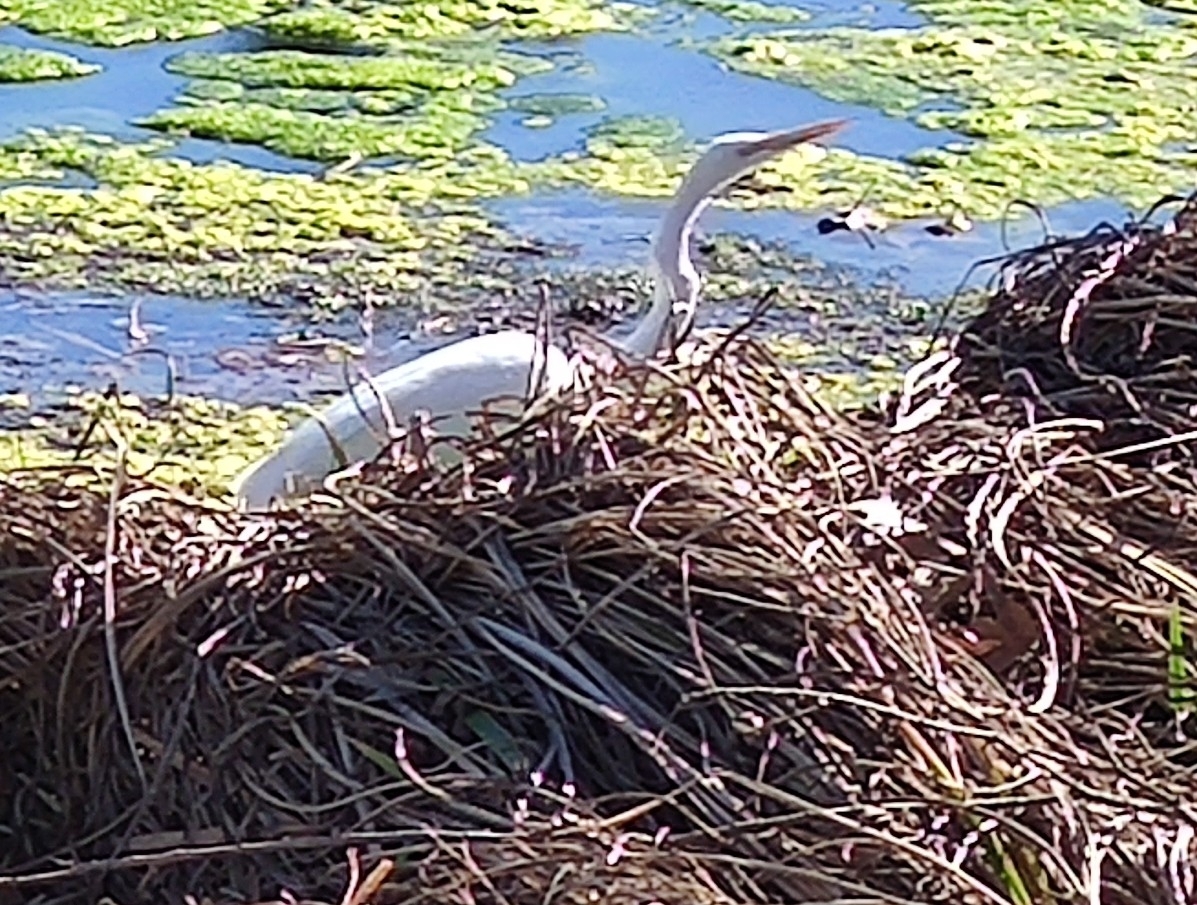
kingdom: Animalia
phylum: Chordata
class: Aves
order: Pelecaniformes
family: Ardeidae
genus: Ardea
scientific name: Ardea alba
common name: Great egret
